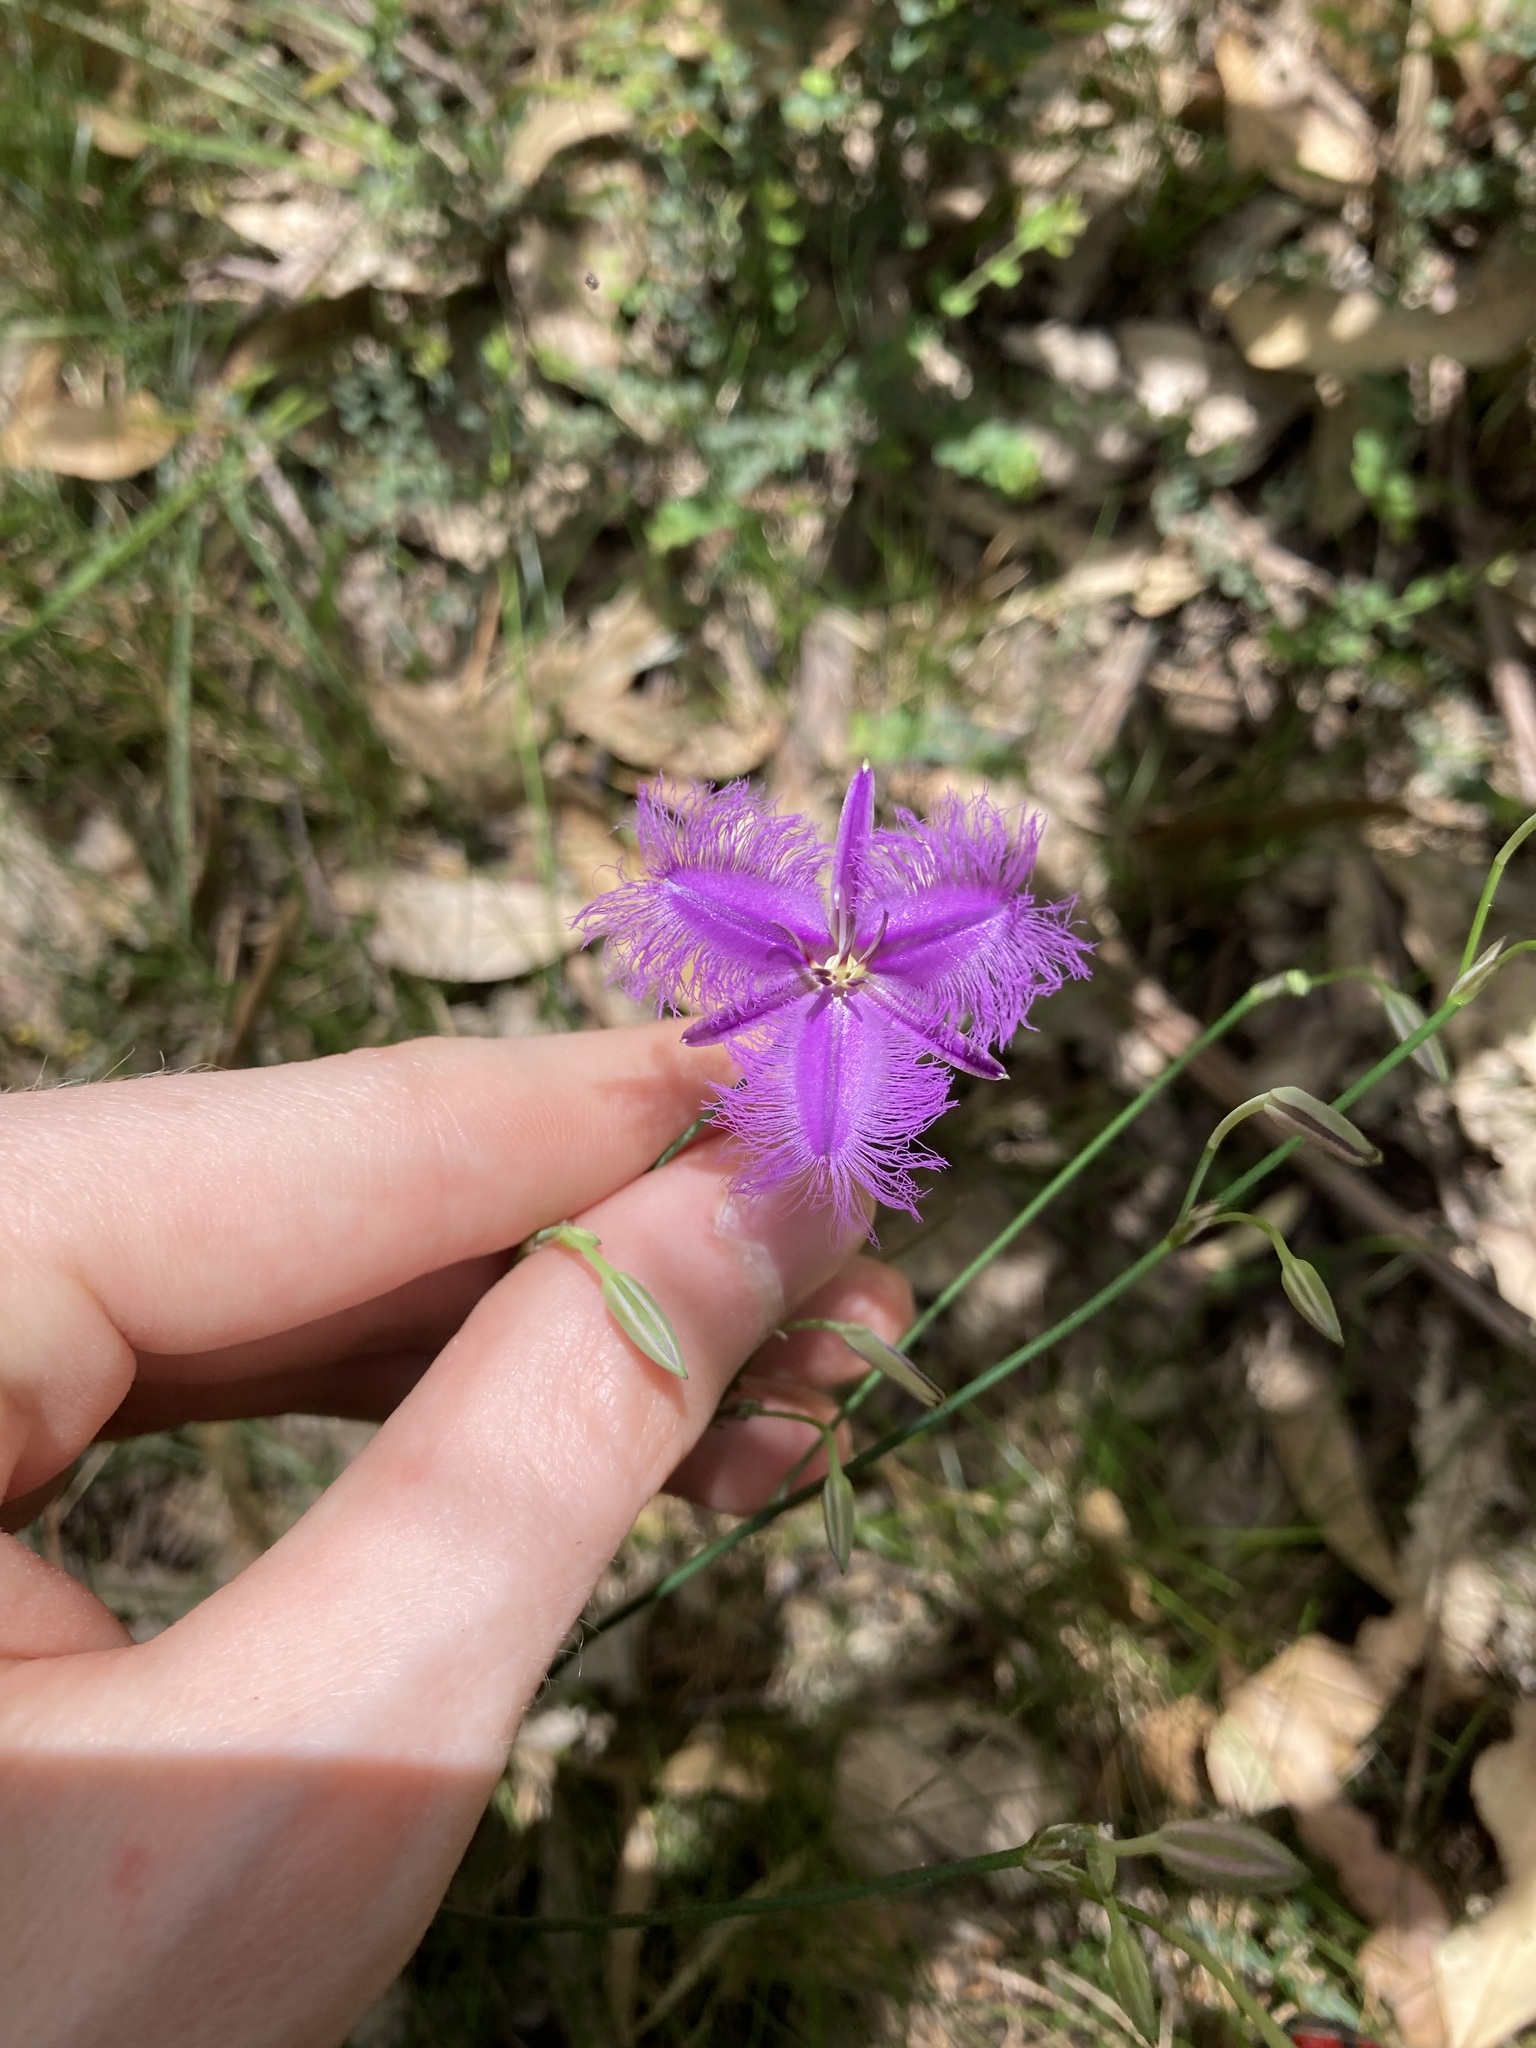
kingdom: Plantae
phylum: Tracheophyta
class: Liliopsida
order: Asparagales
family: Asparagaceae
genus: Thysanotus
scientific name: Thysanotus tuberosus
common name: Common fringed-lily
